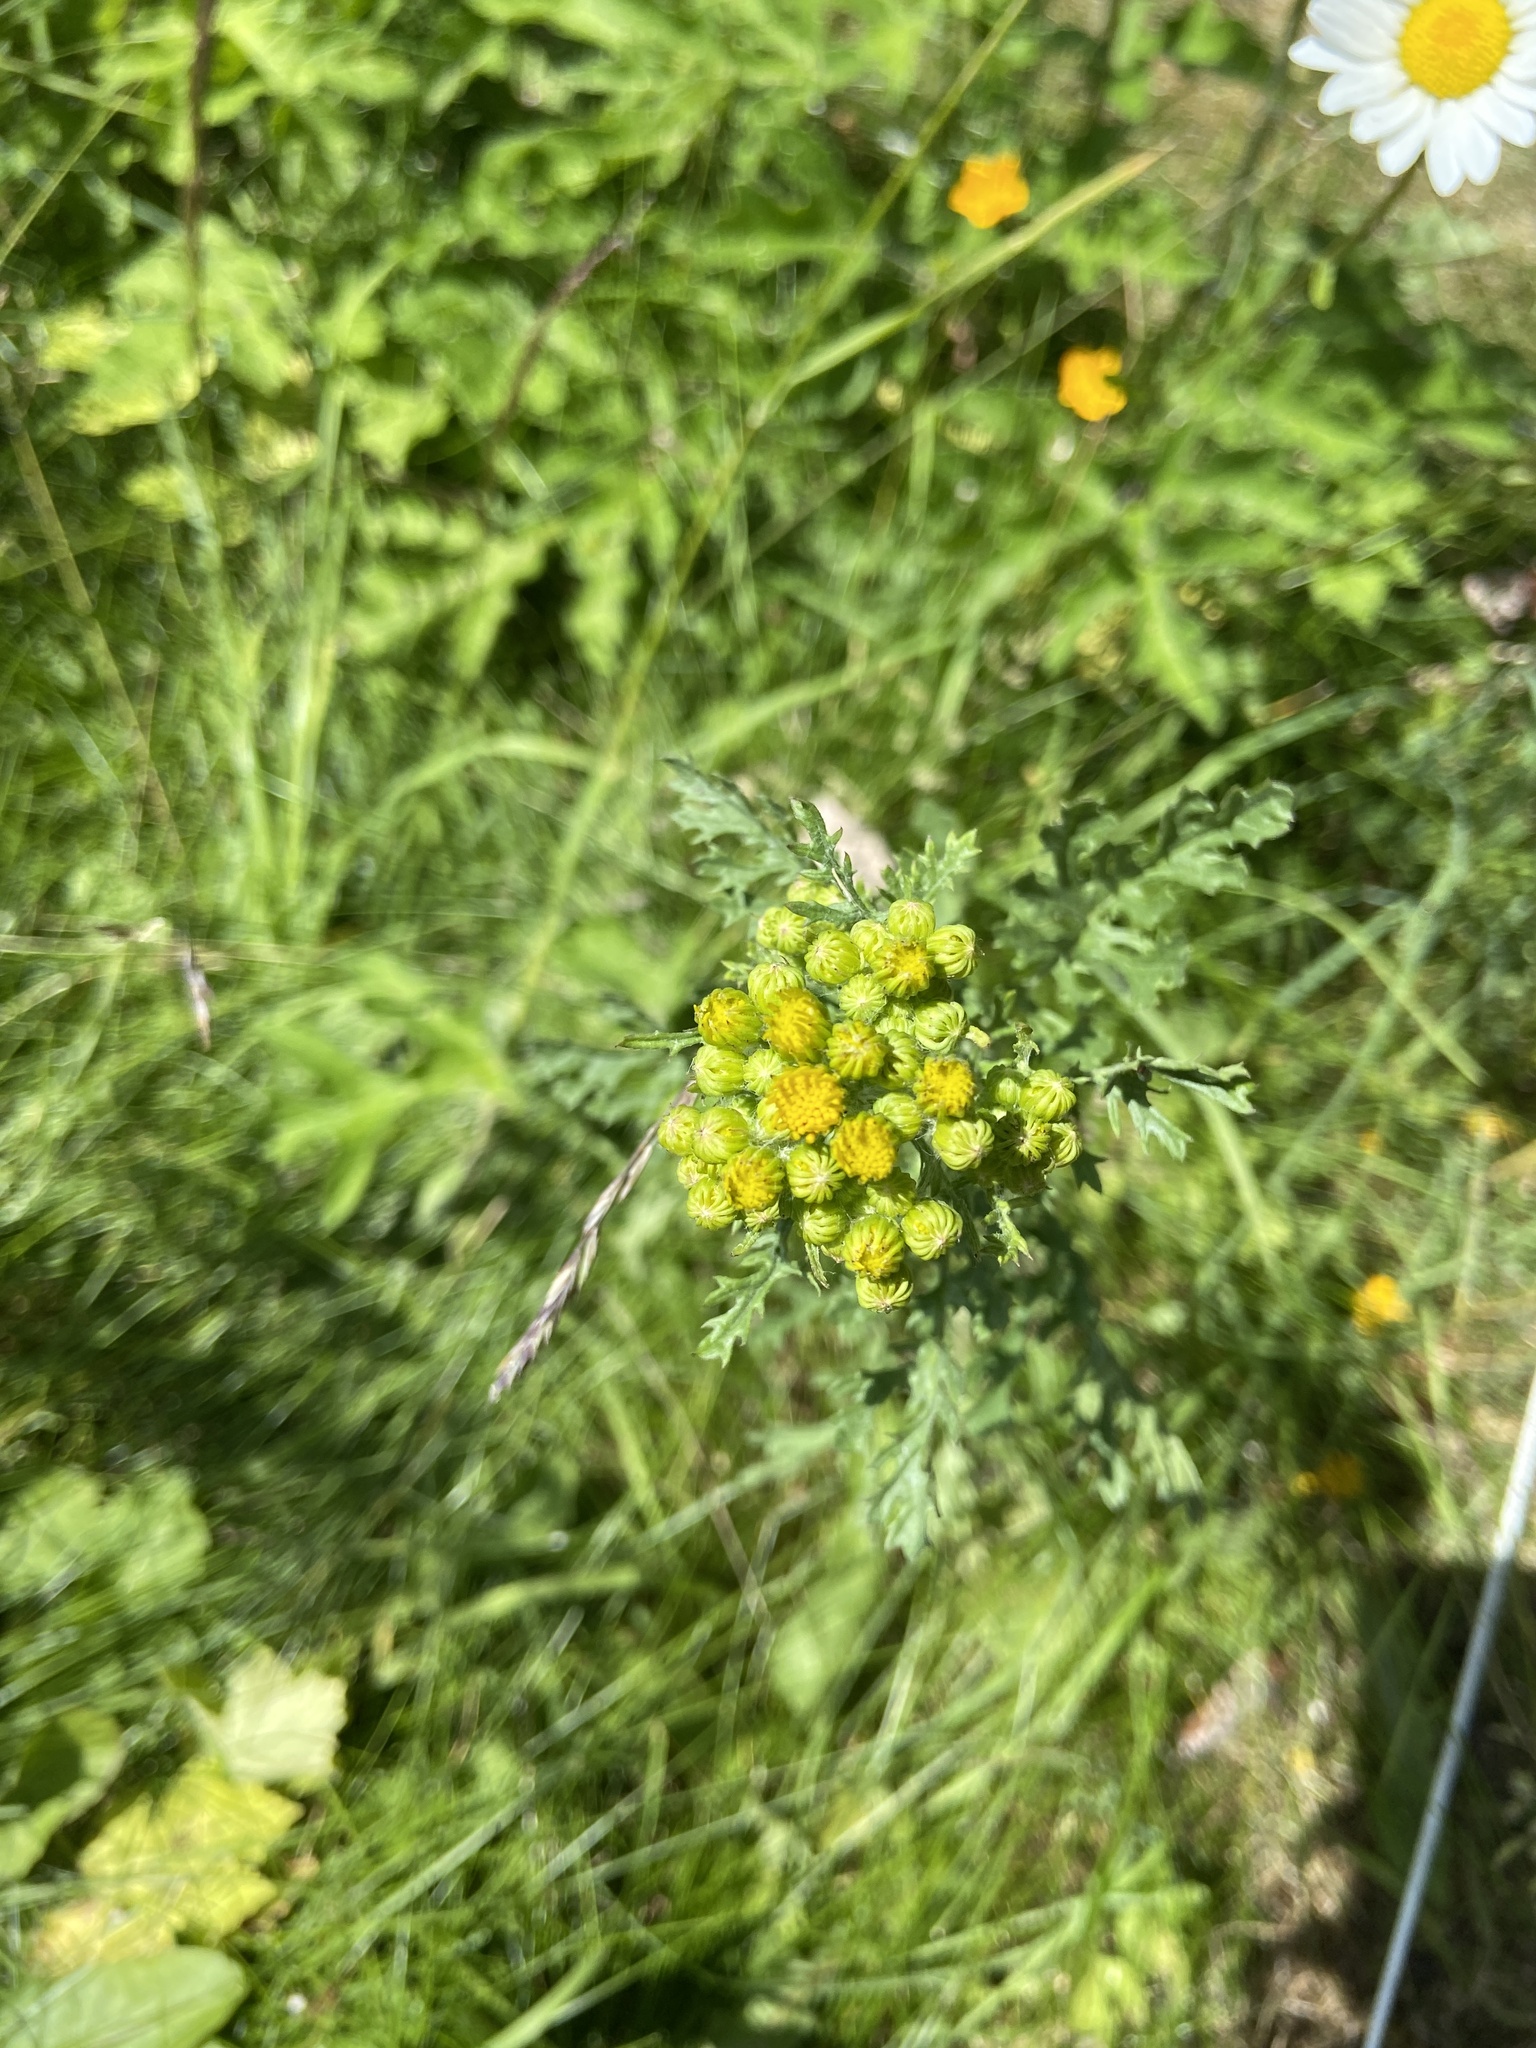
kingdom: Plantae
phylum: Tracheophyta
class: Magnoliopsida
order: Asterales
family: Asteraceae
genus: Jacobaea
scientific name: Jacobaea vulgaris
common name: Stinking willie
